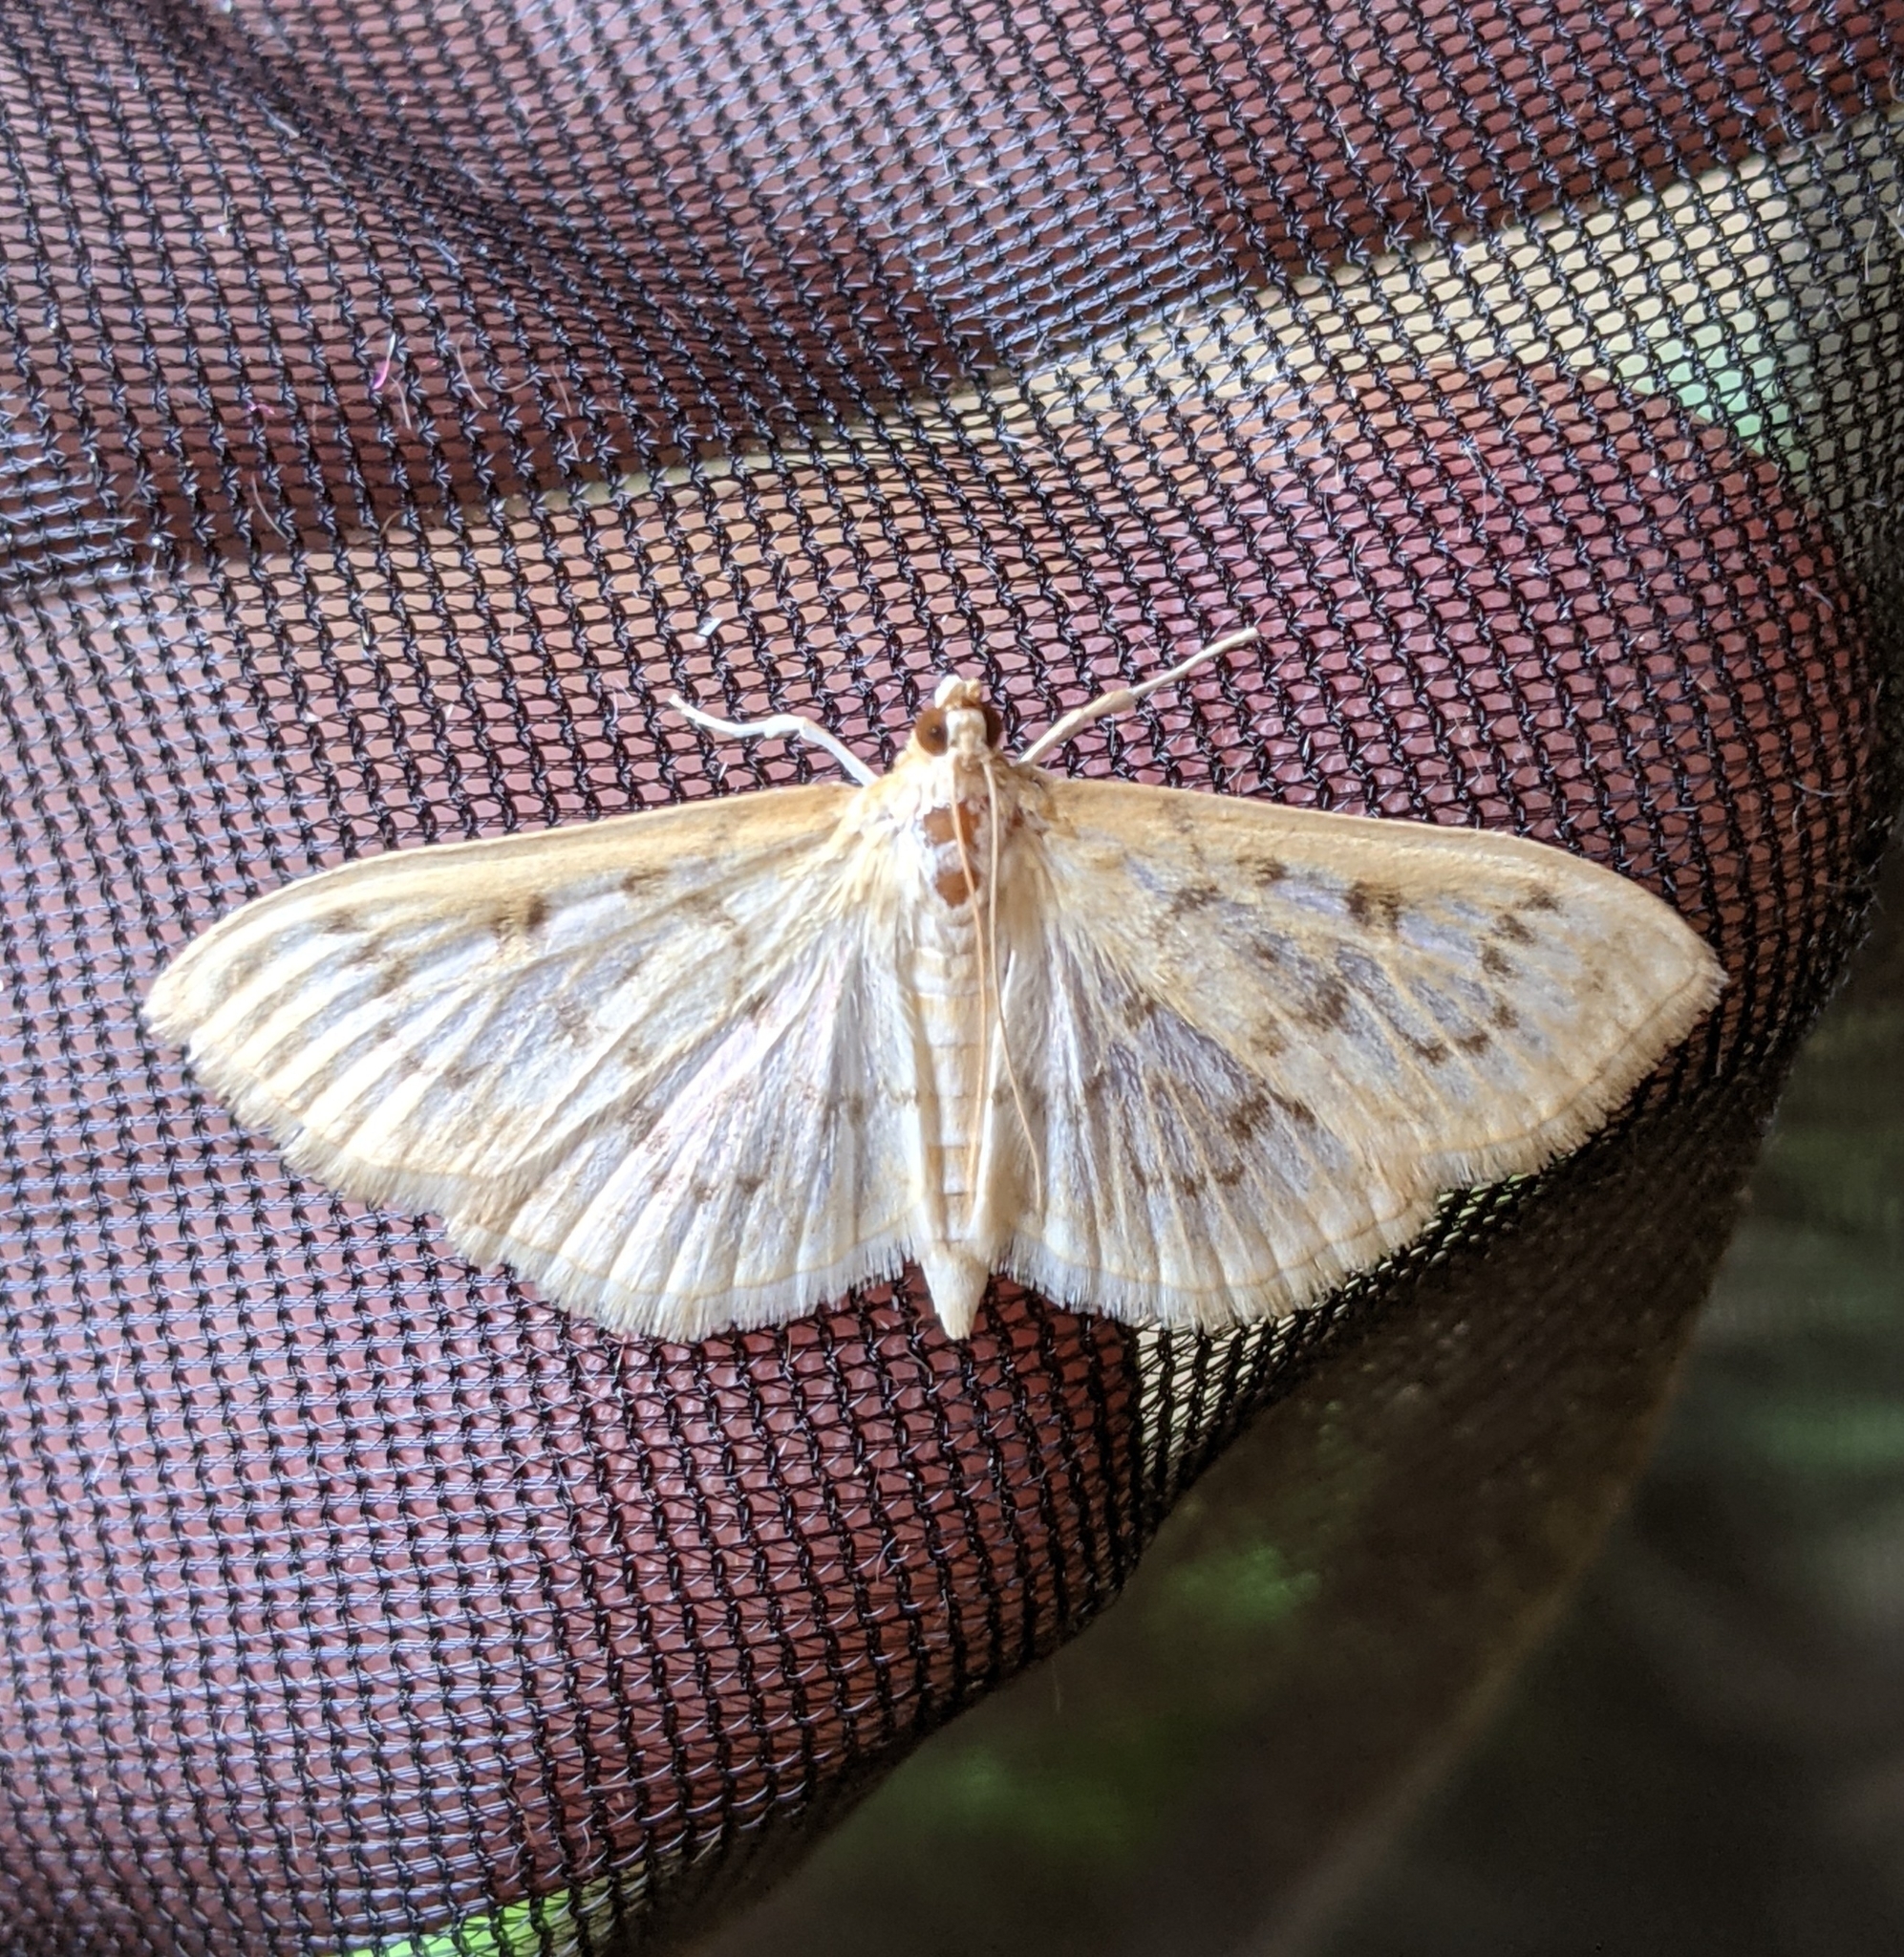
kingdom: Animalia
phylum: Arthropoda
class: Insecta
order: Lepidoptera
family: Crambidae
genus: Herpetogramma
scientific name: Herpetogramma aquilonalis
